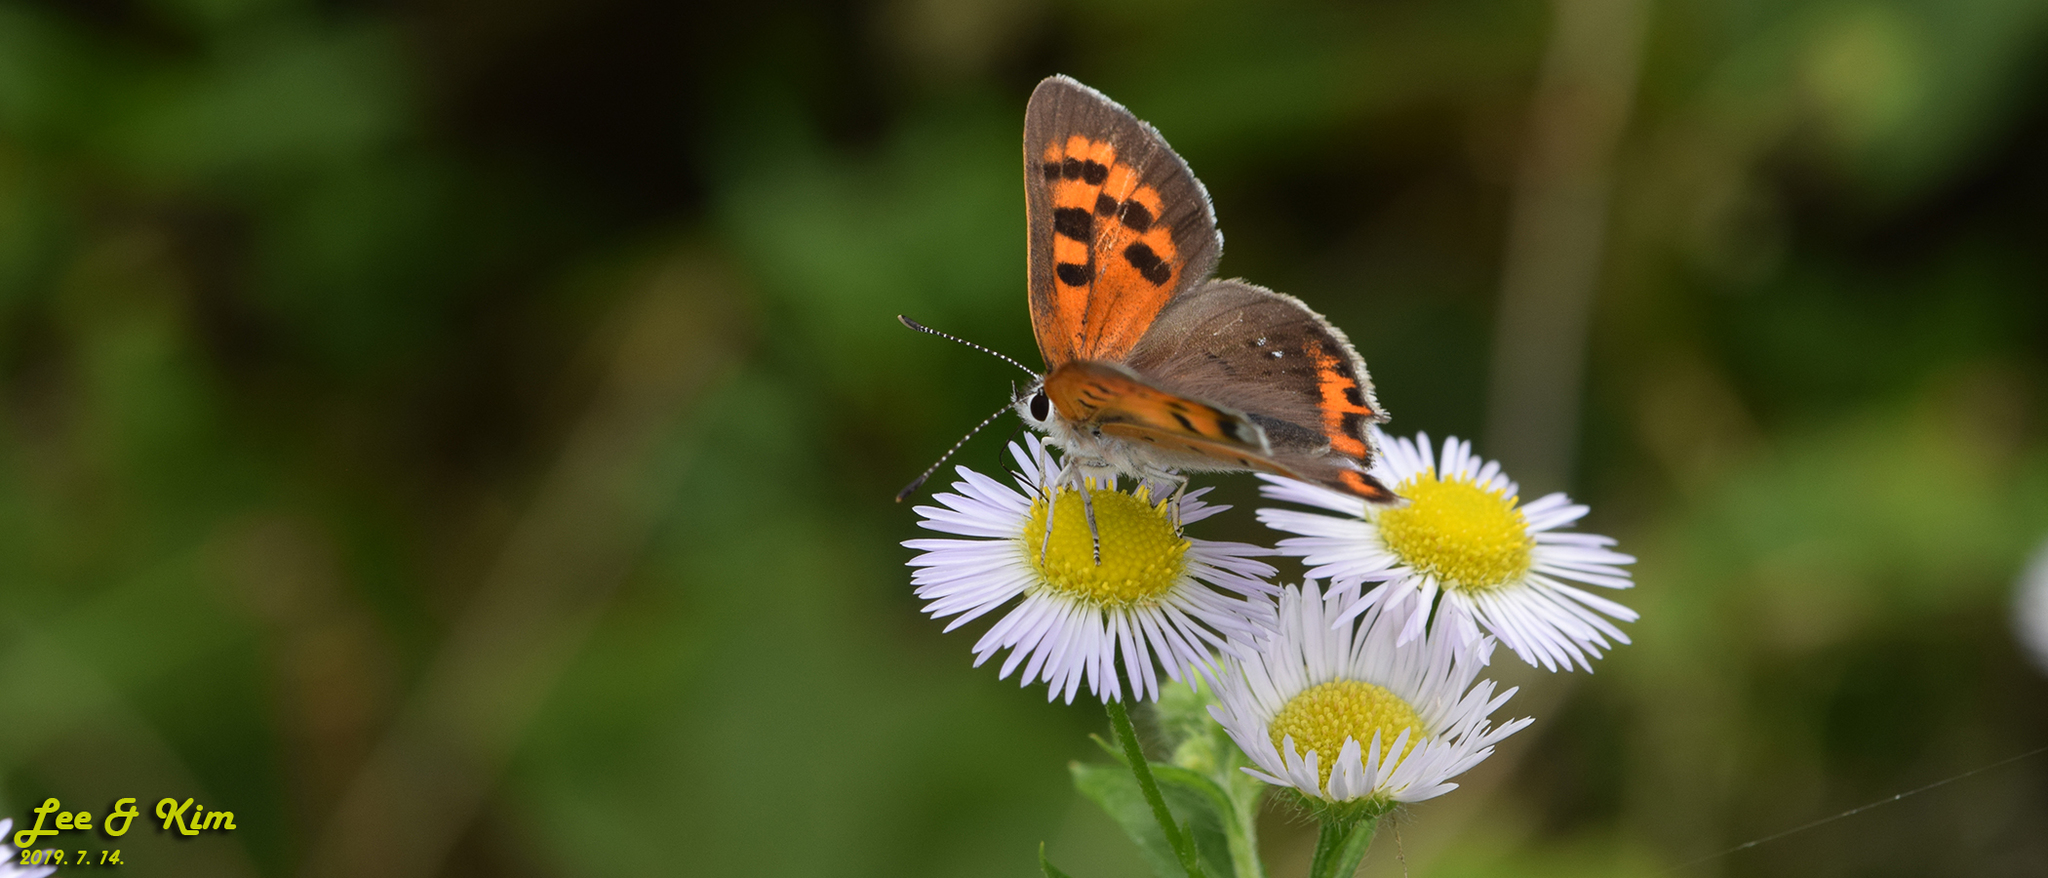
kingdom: Animalia
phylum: Arthropoda
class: Insecta
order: Lepidoptera
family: Lycaenidae
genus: Lycaena
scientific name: Lycaena phlaeas
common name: Small copper
